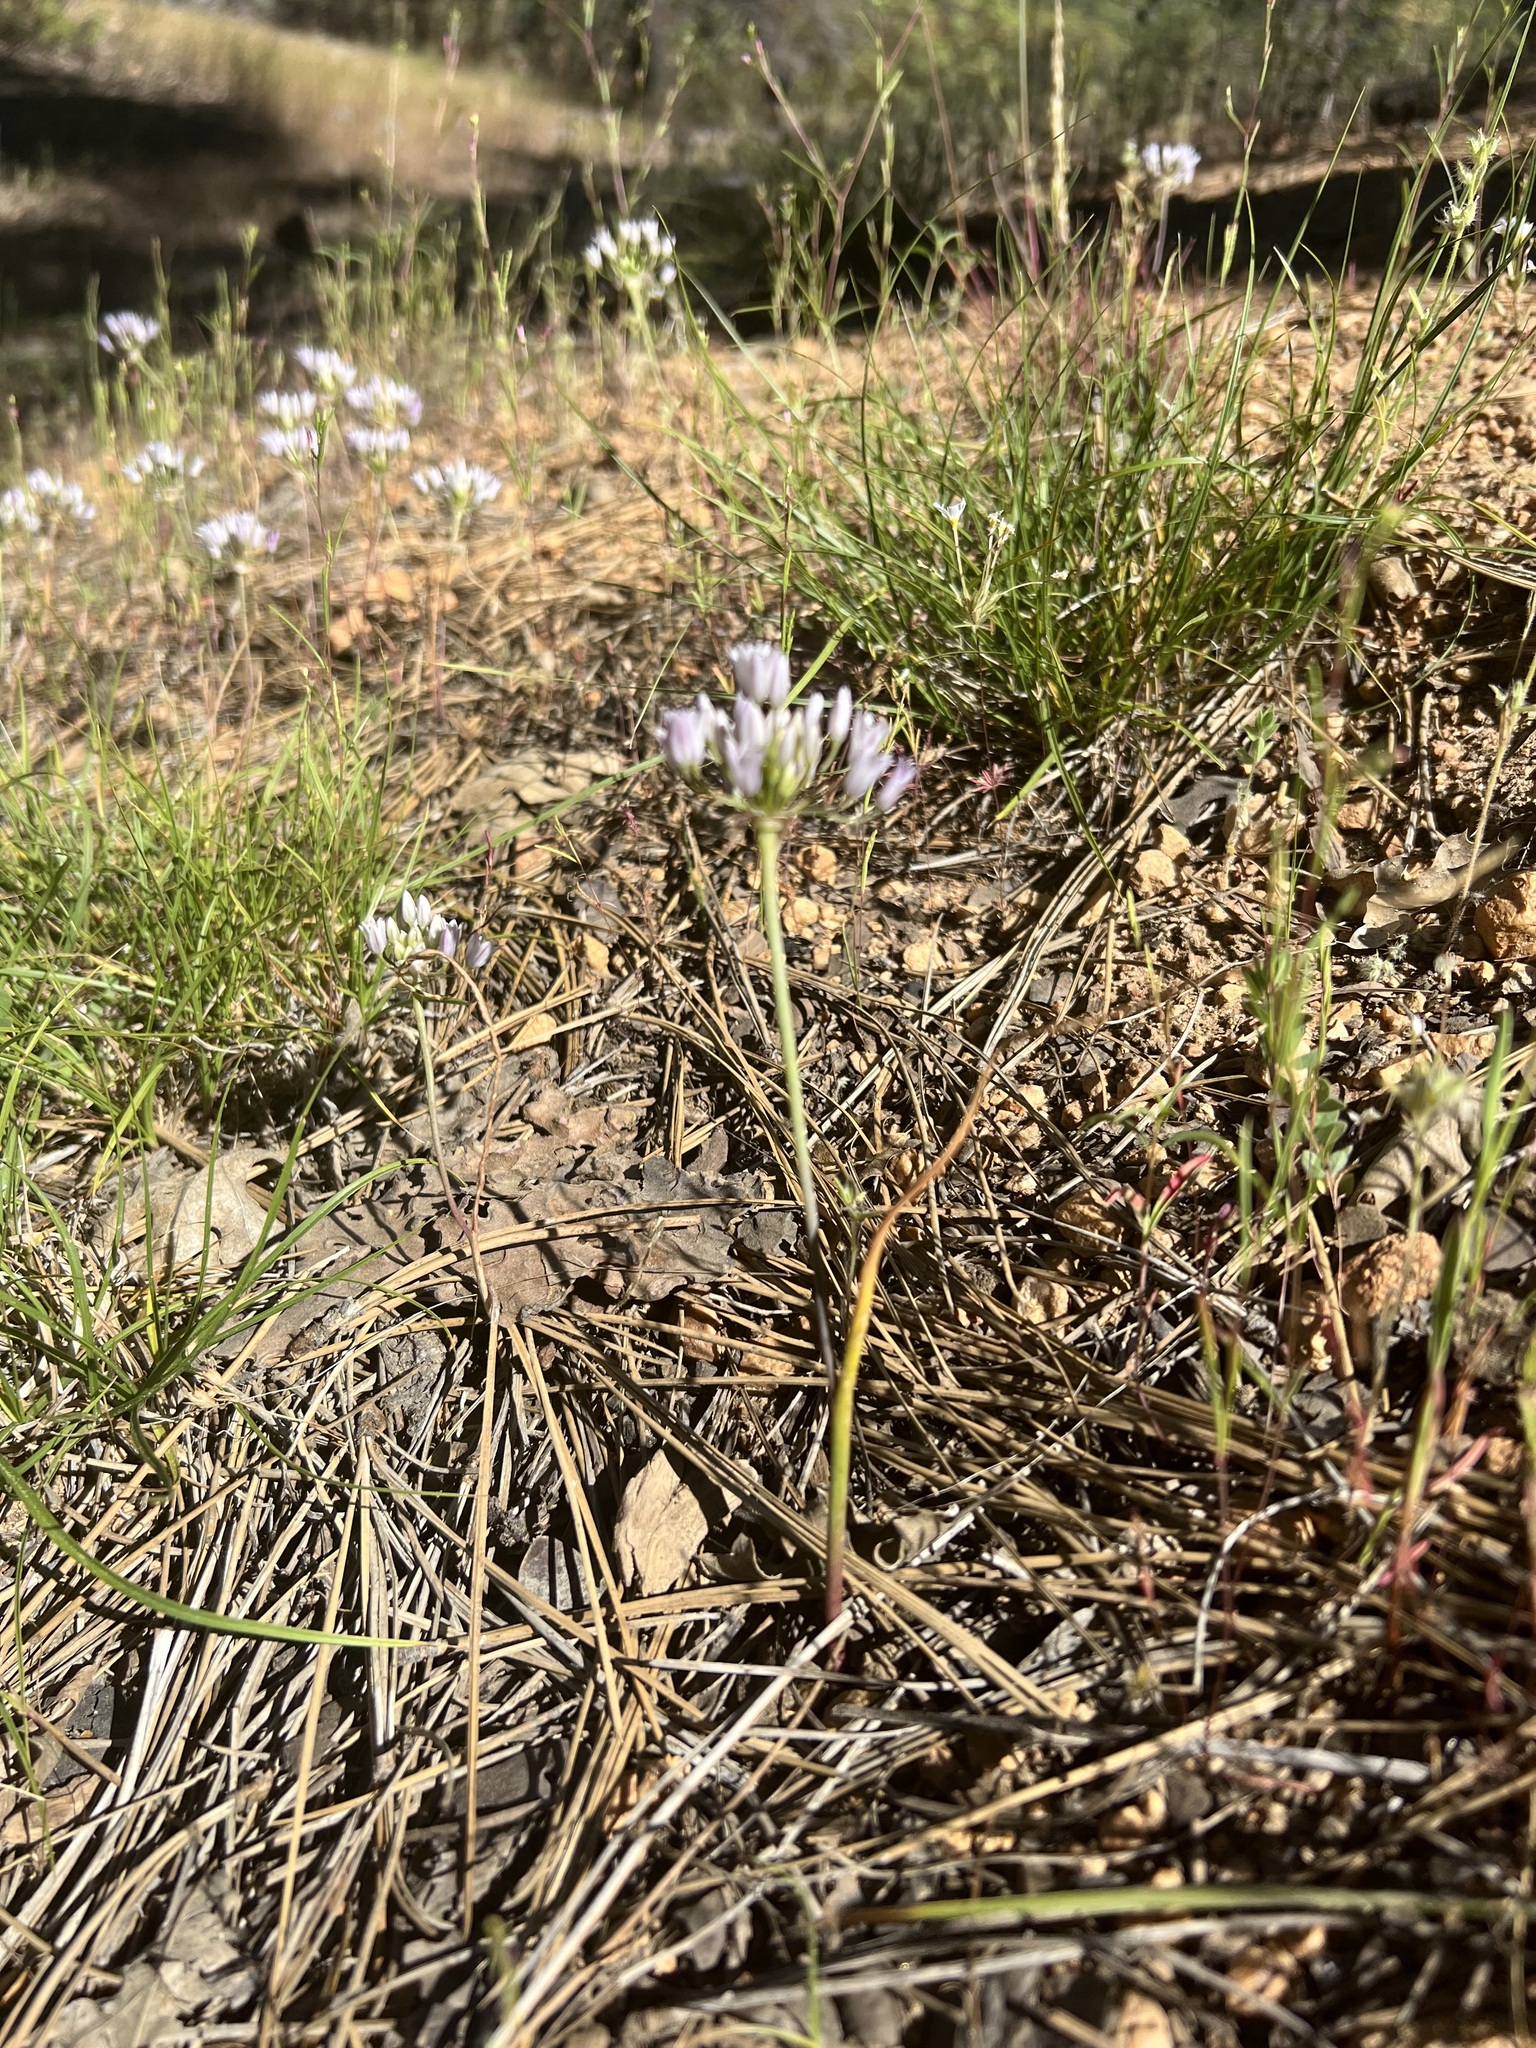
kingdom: Plantae
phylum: Tracheophyta
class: Liliopsida
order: Asparagales
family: Amaryllidaceae
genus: Allium
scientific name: Allium parryi
